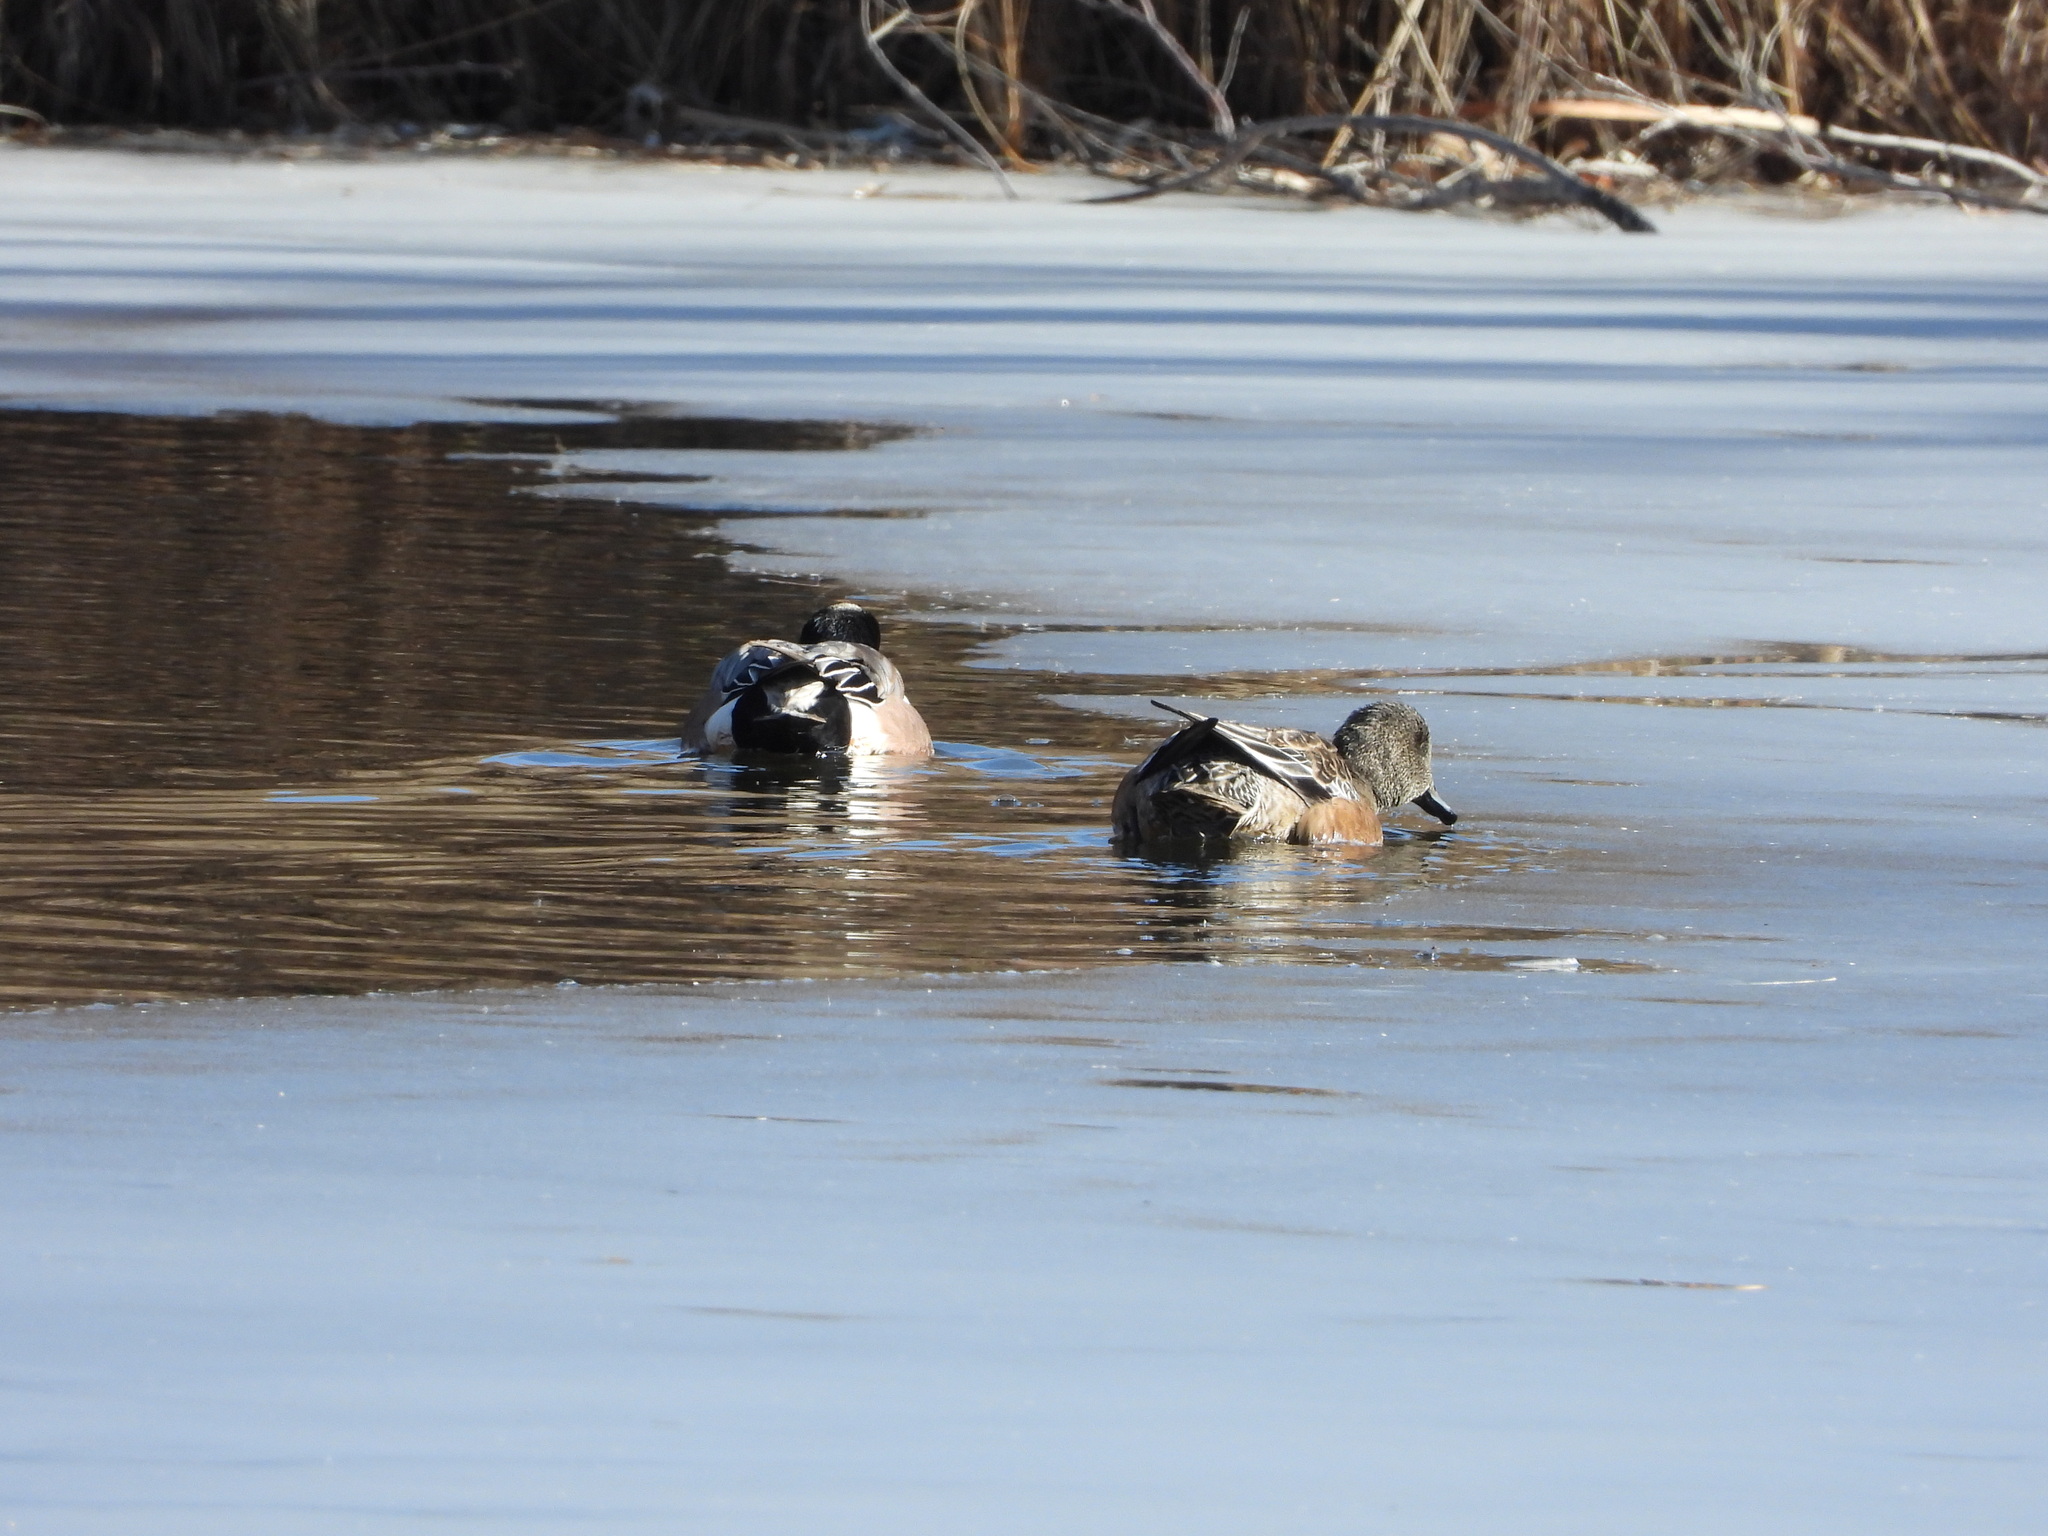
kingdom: Animalia
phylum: Chordata
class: Aves
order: Anseriformes
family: Anatidae
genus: Mareca
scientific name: Mareca americana
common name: American wigeon
